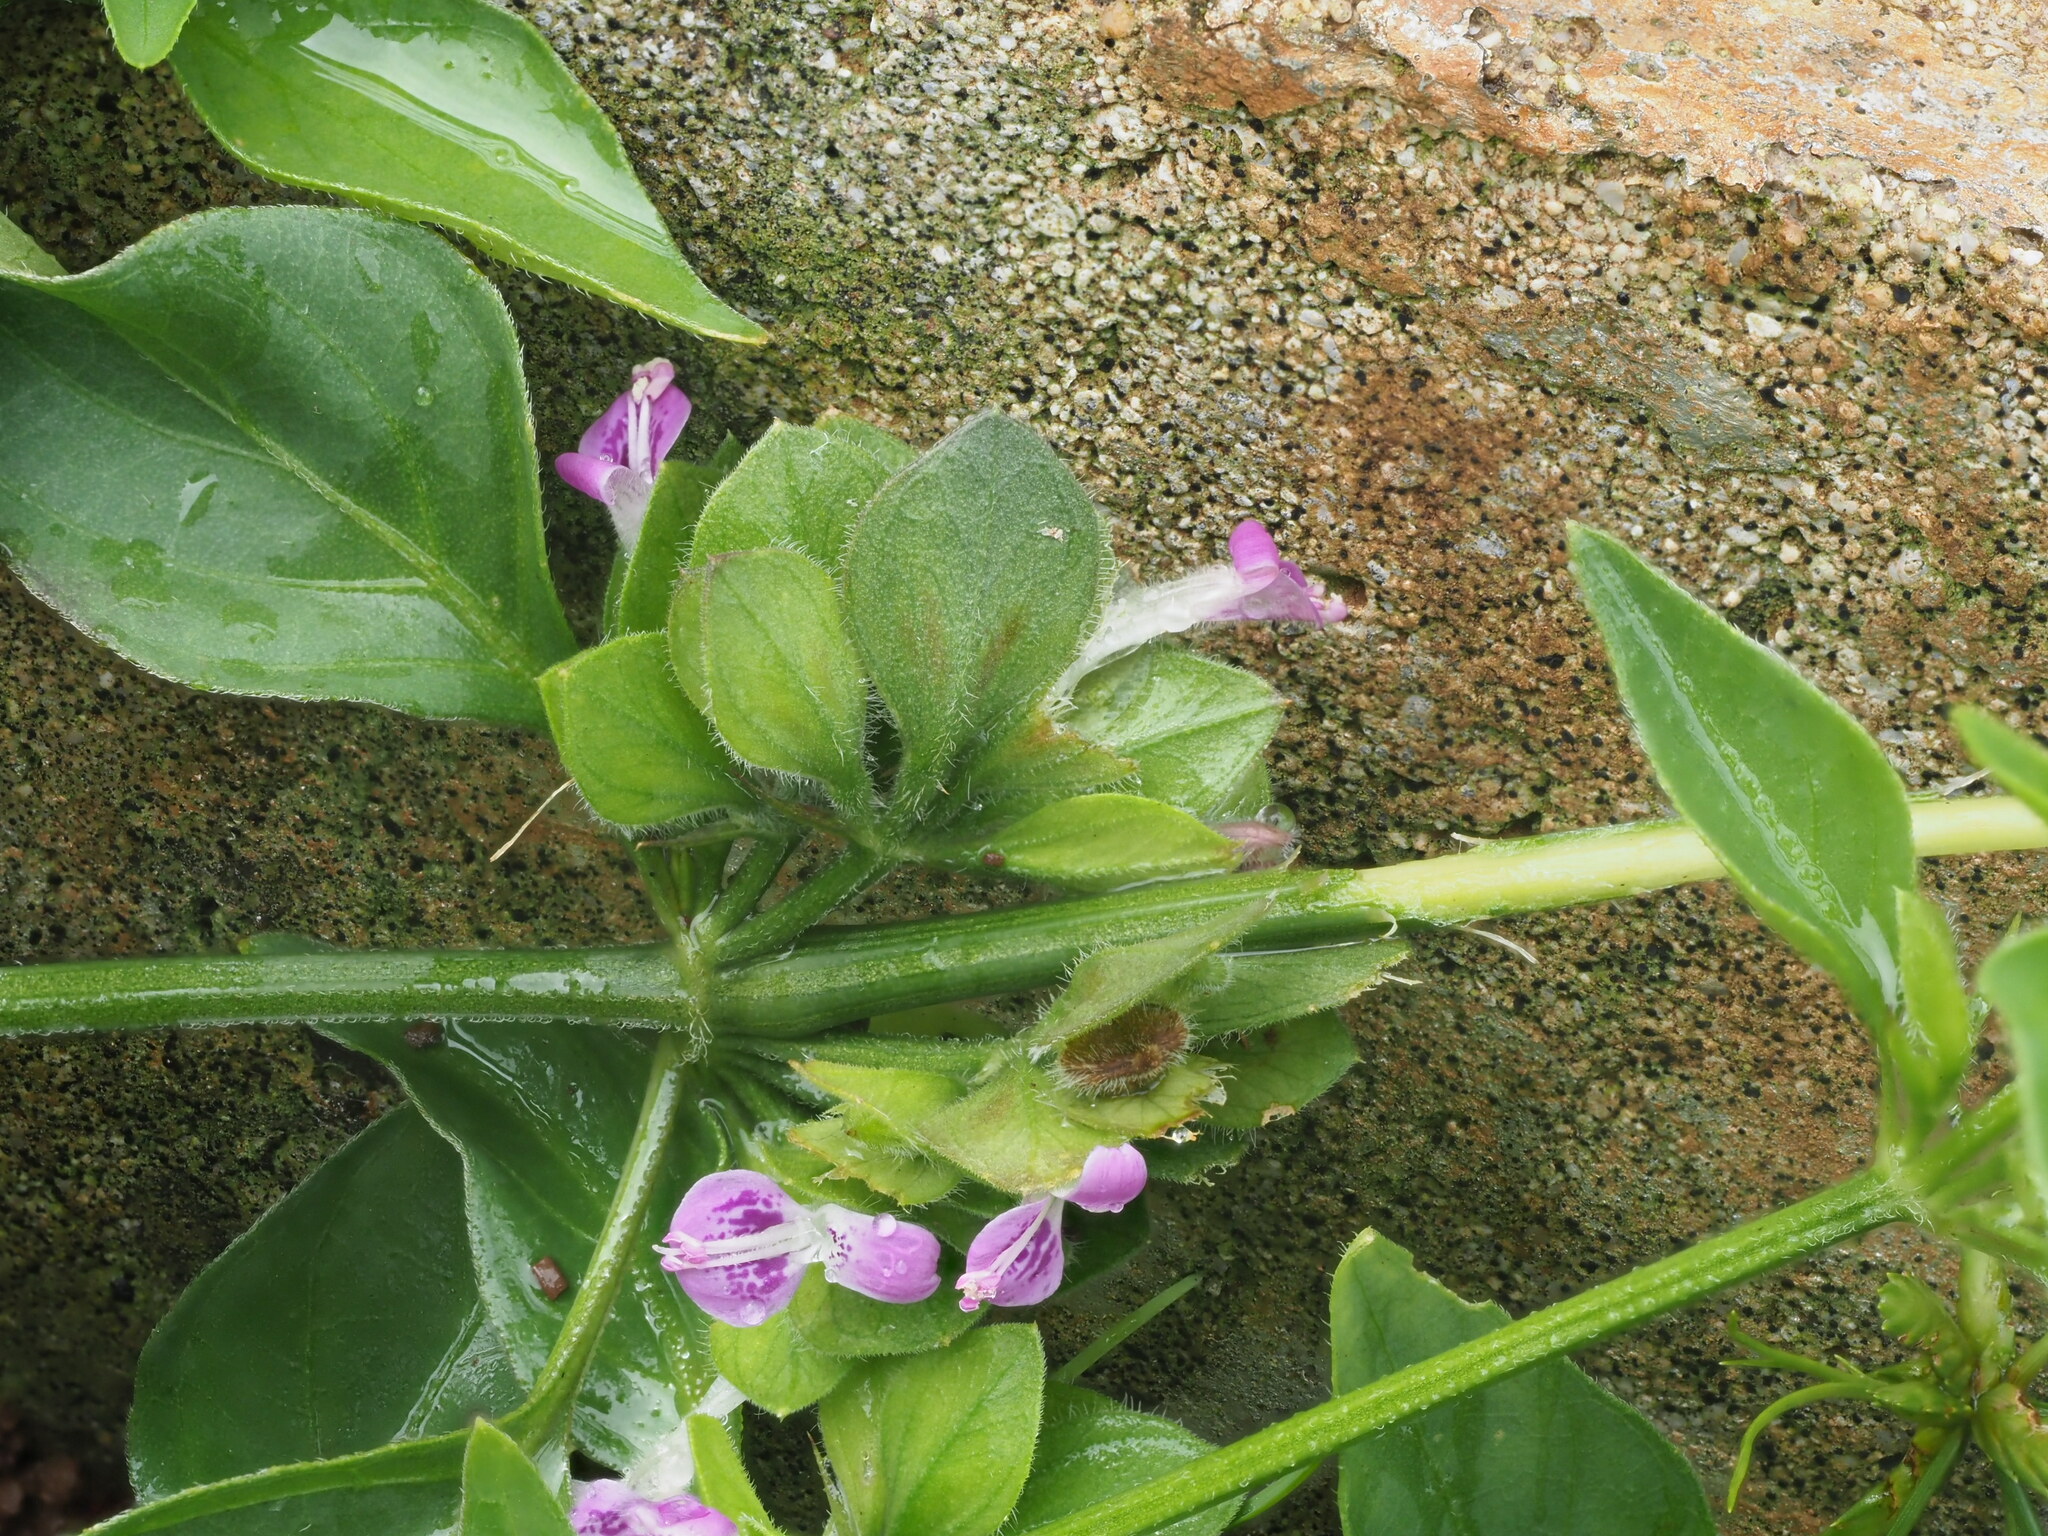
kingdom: Plantae
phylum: Tracheophyta
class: Magnoliopsida
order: Lamiales
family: Acanthaceae
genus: Dicliptera
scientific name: Dicliptera chinensis
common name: Chinese foldwing
